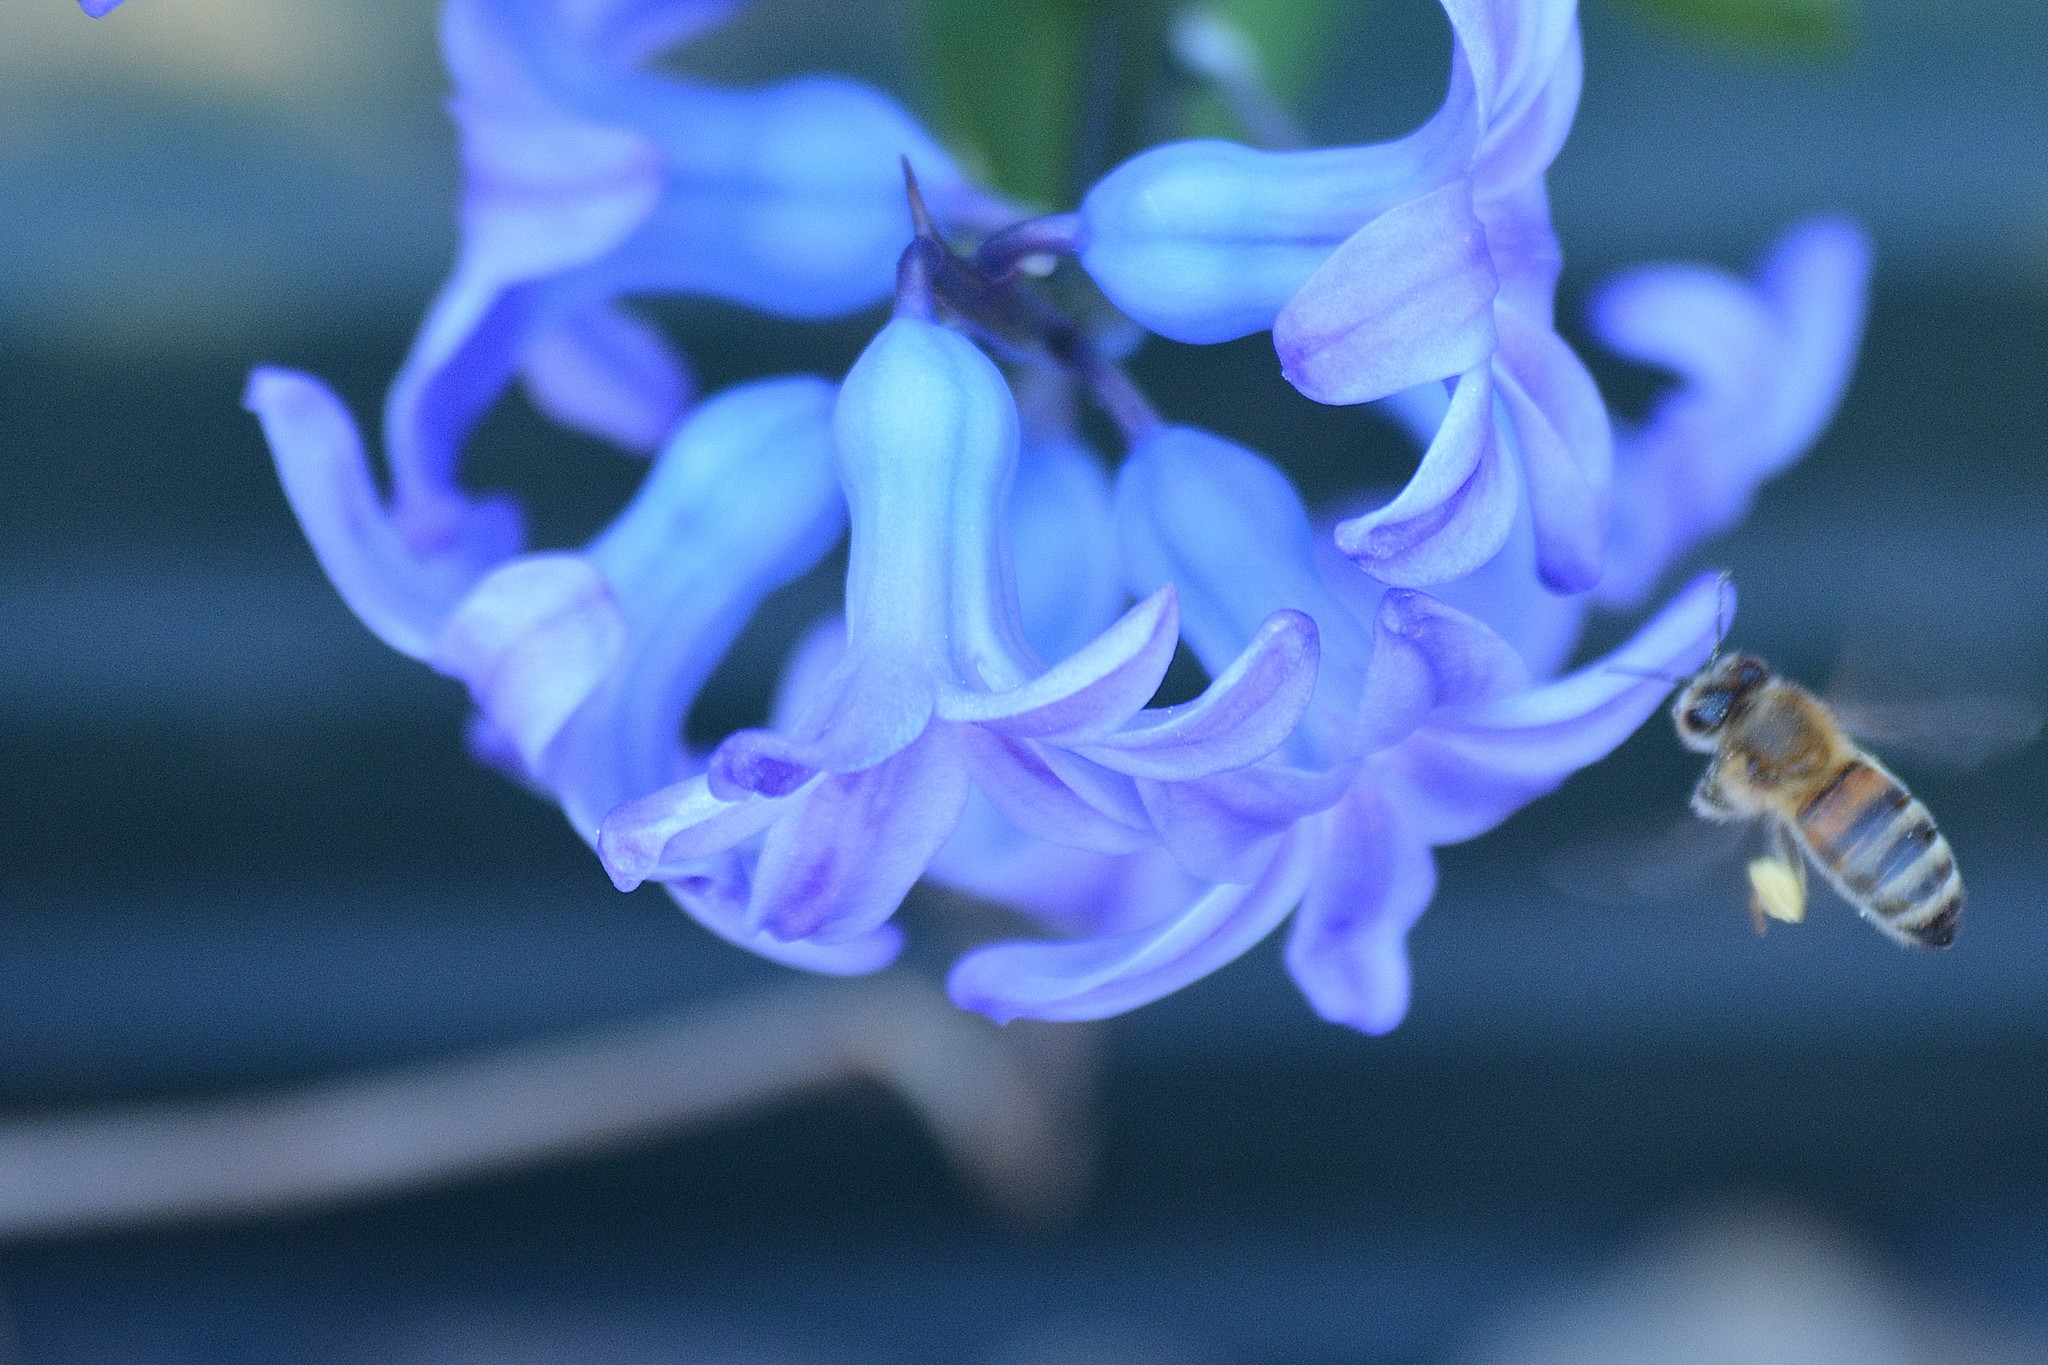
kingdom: Animalia
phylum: Arthropoda
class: Insecta
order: Hymenoptera
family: Apidae
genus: Apis
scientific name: Apis mellifera
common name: Honey bee
